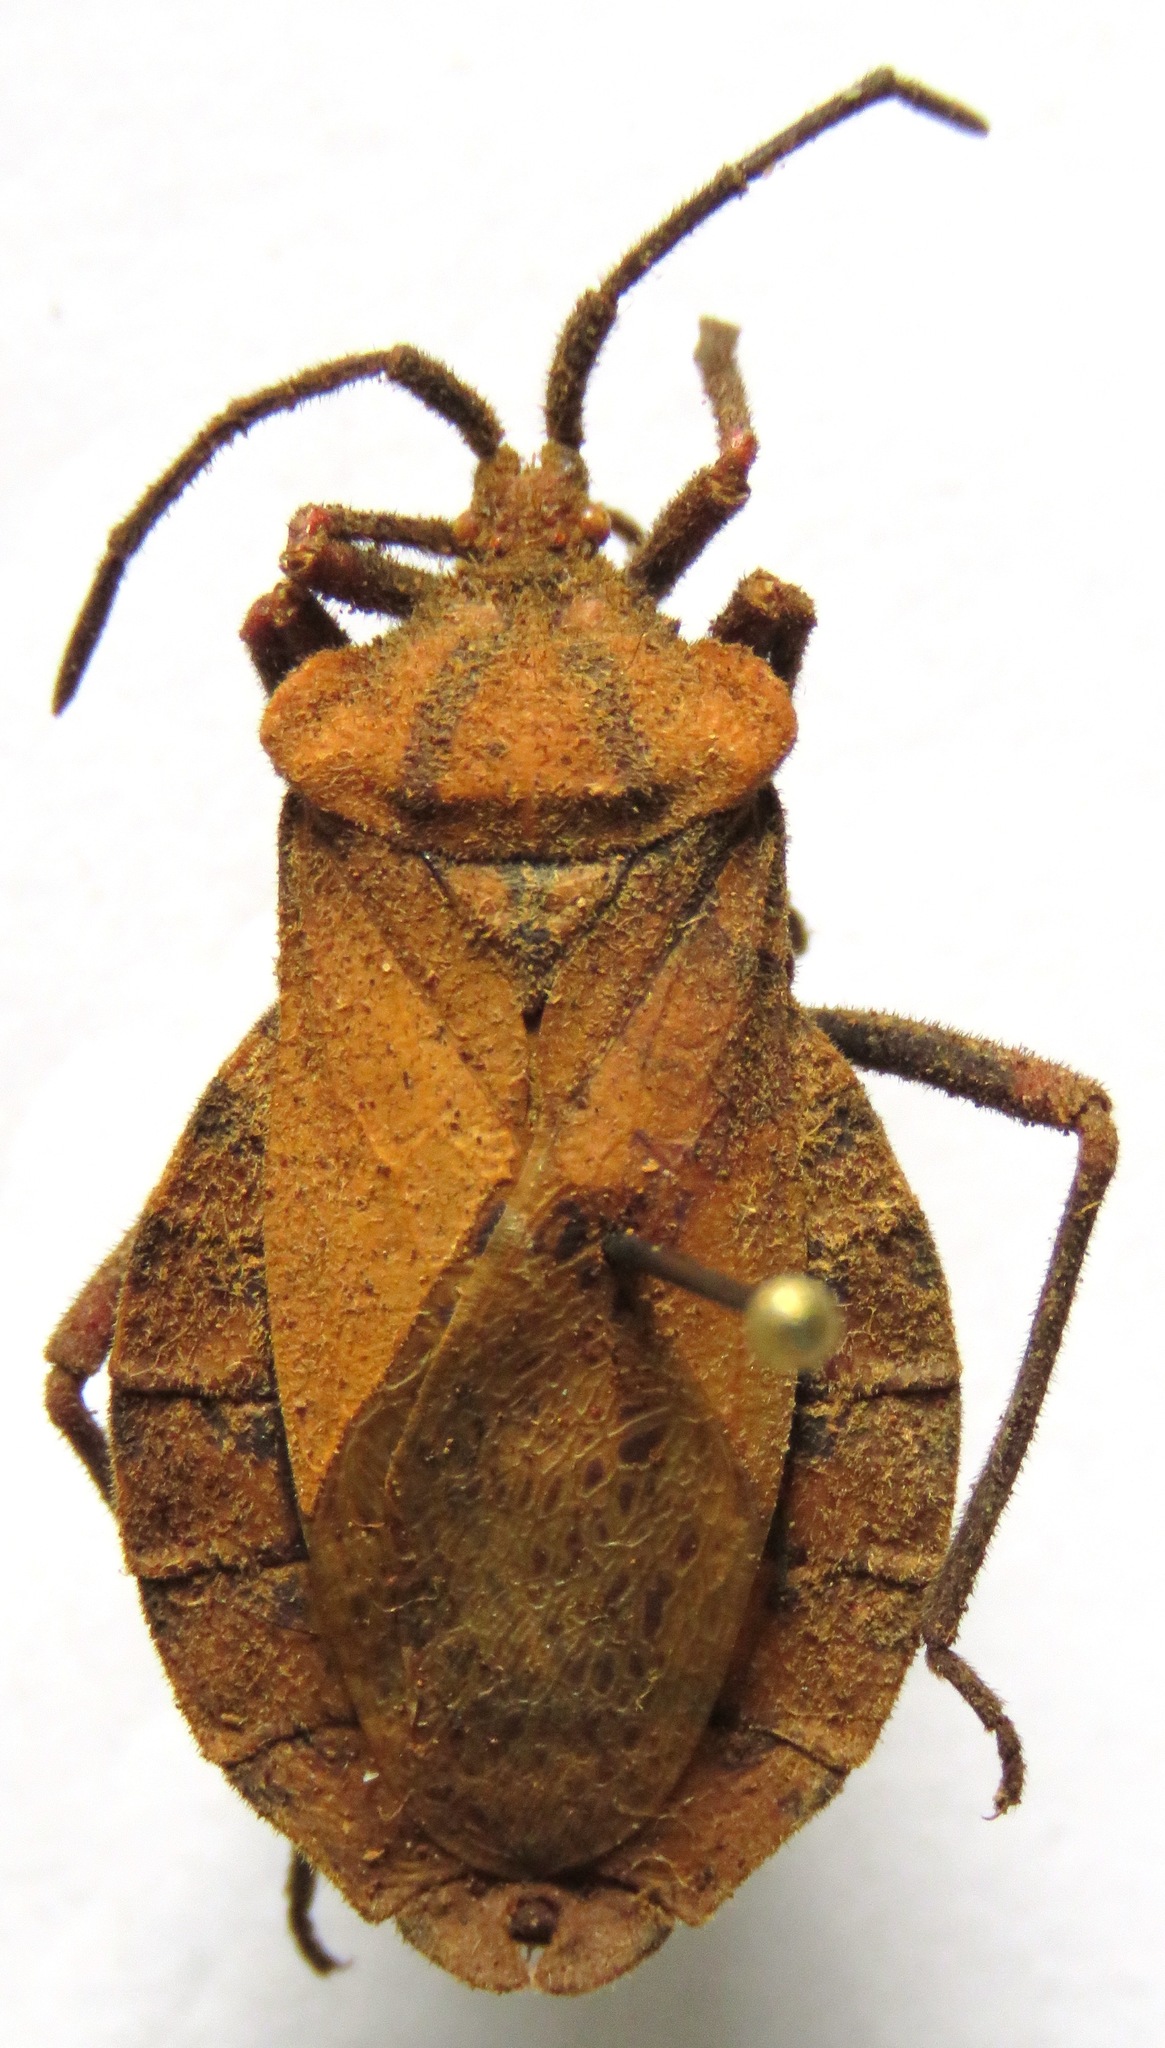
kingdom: Animalia
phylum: Arthropoda
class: Insecta
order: Hemiptera
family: Coreidae
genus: Spartocera
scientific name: Spartocera fusca
